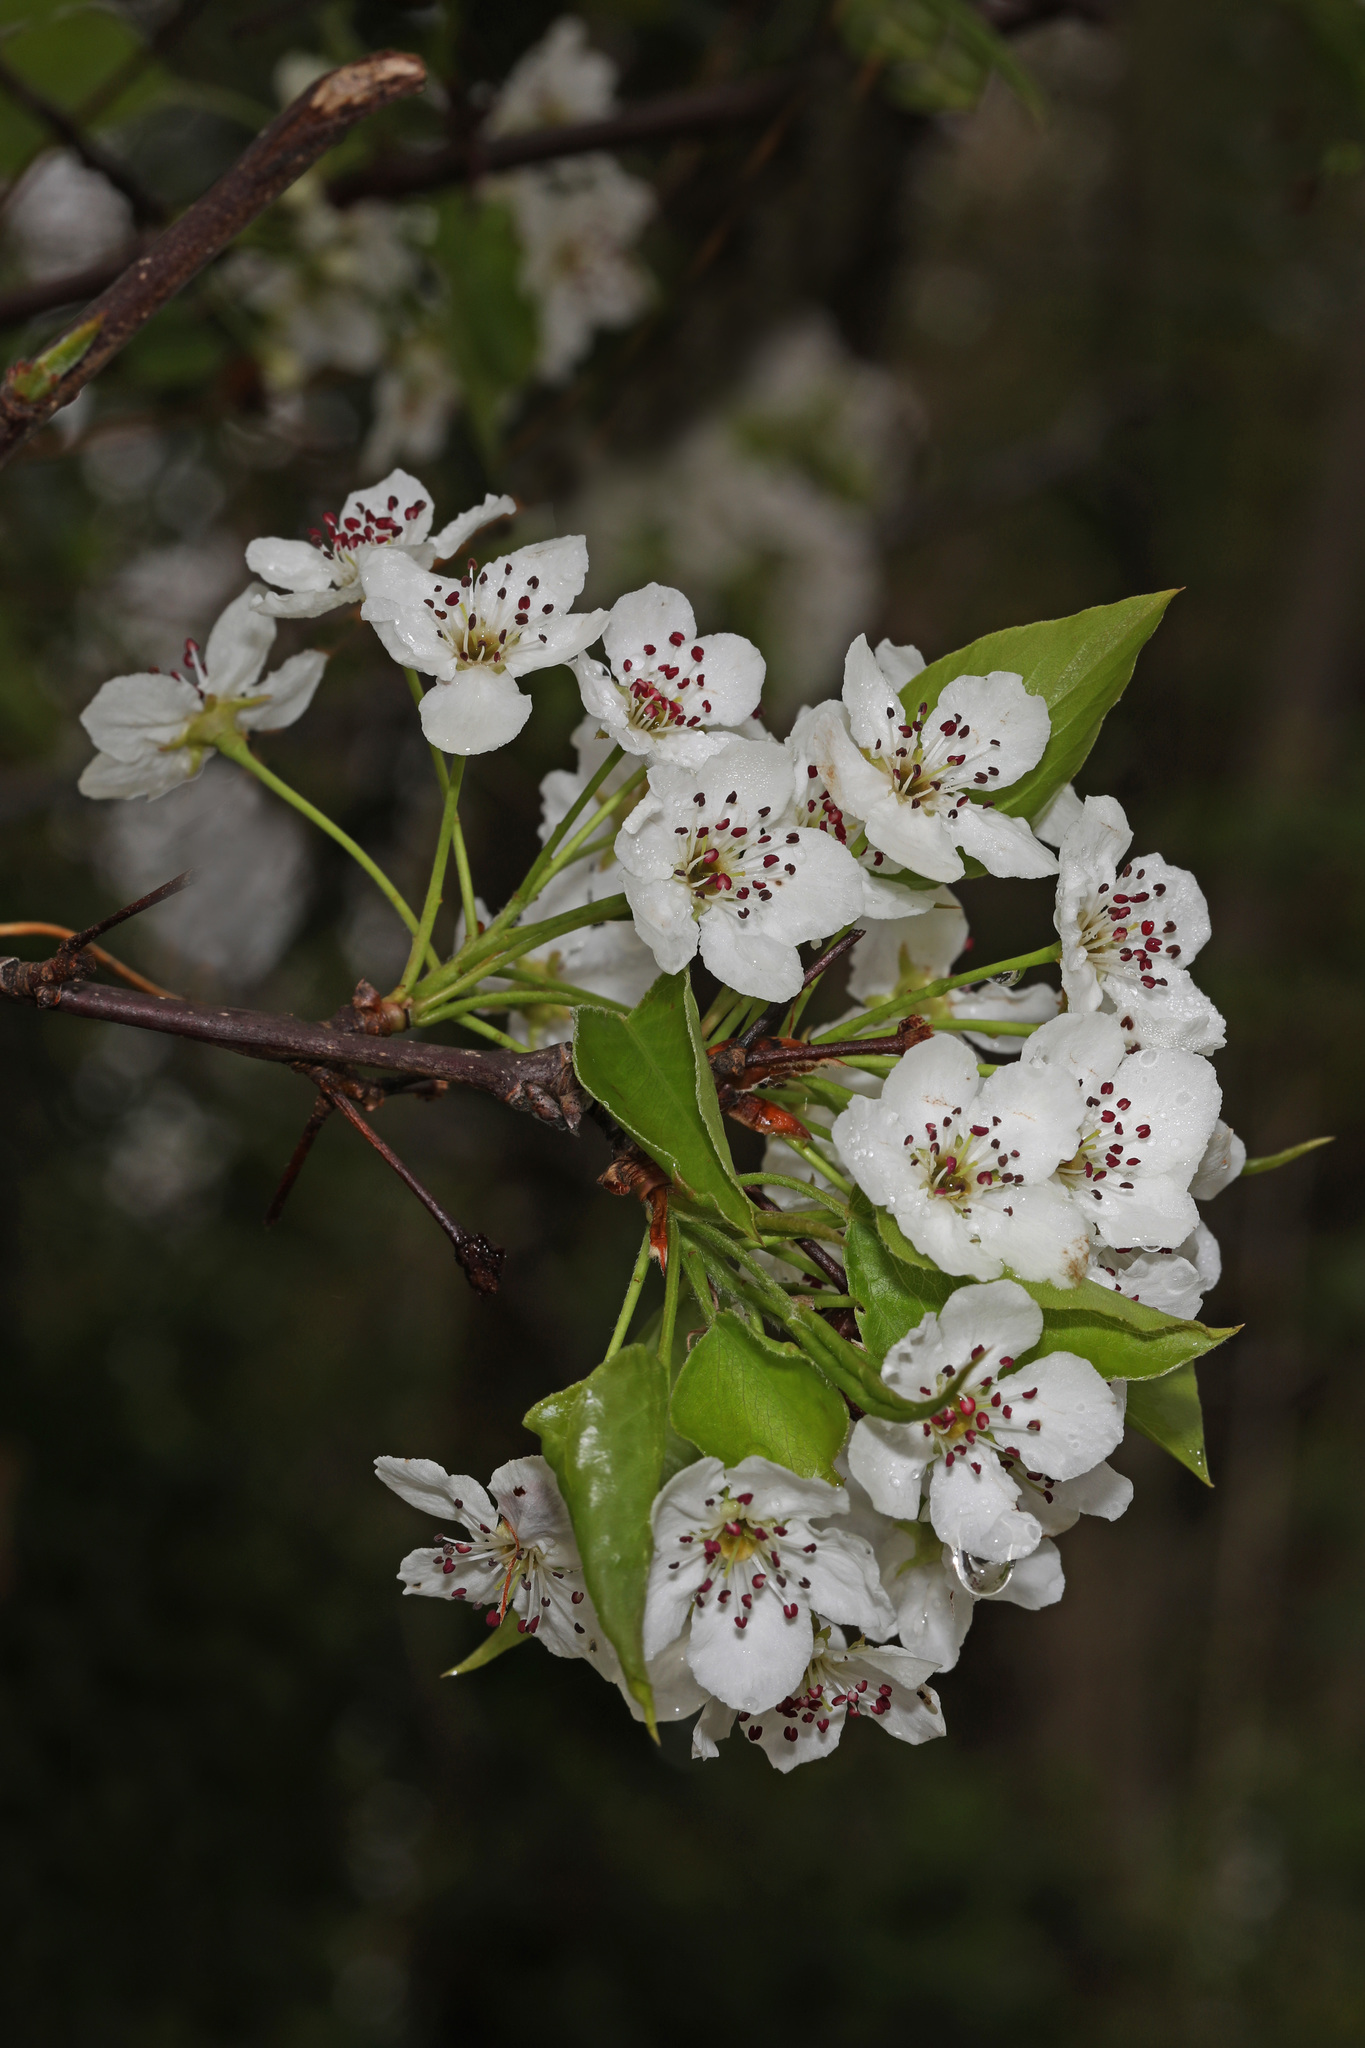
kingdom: Plantae
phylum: Tracheophyta
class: Magnoliopsida
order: Rosales
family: Rosaceae
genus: Pyrus
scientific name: Pyrus calleryana
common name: Callery pear
